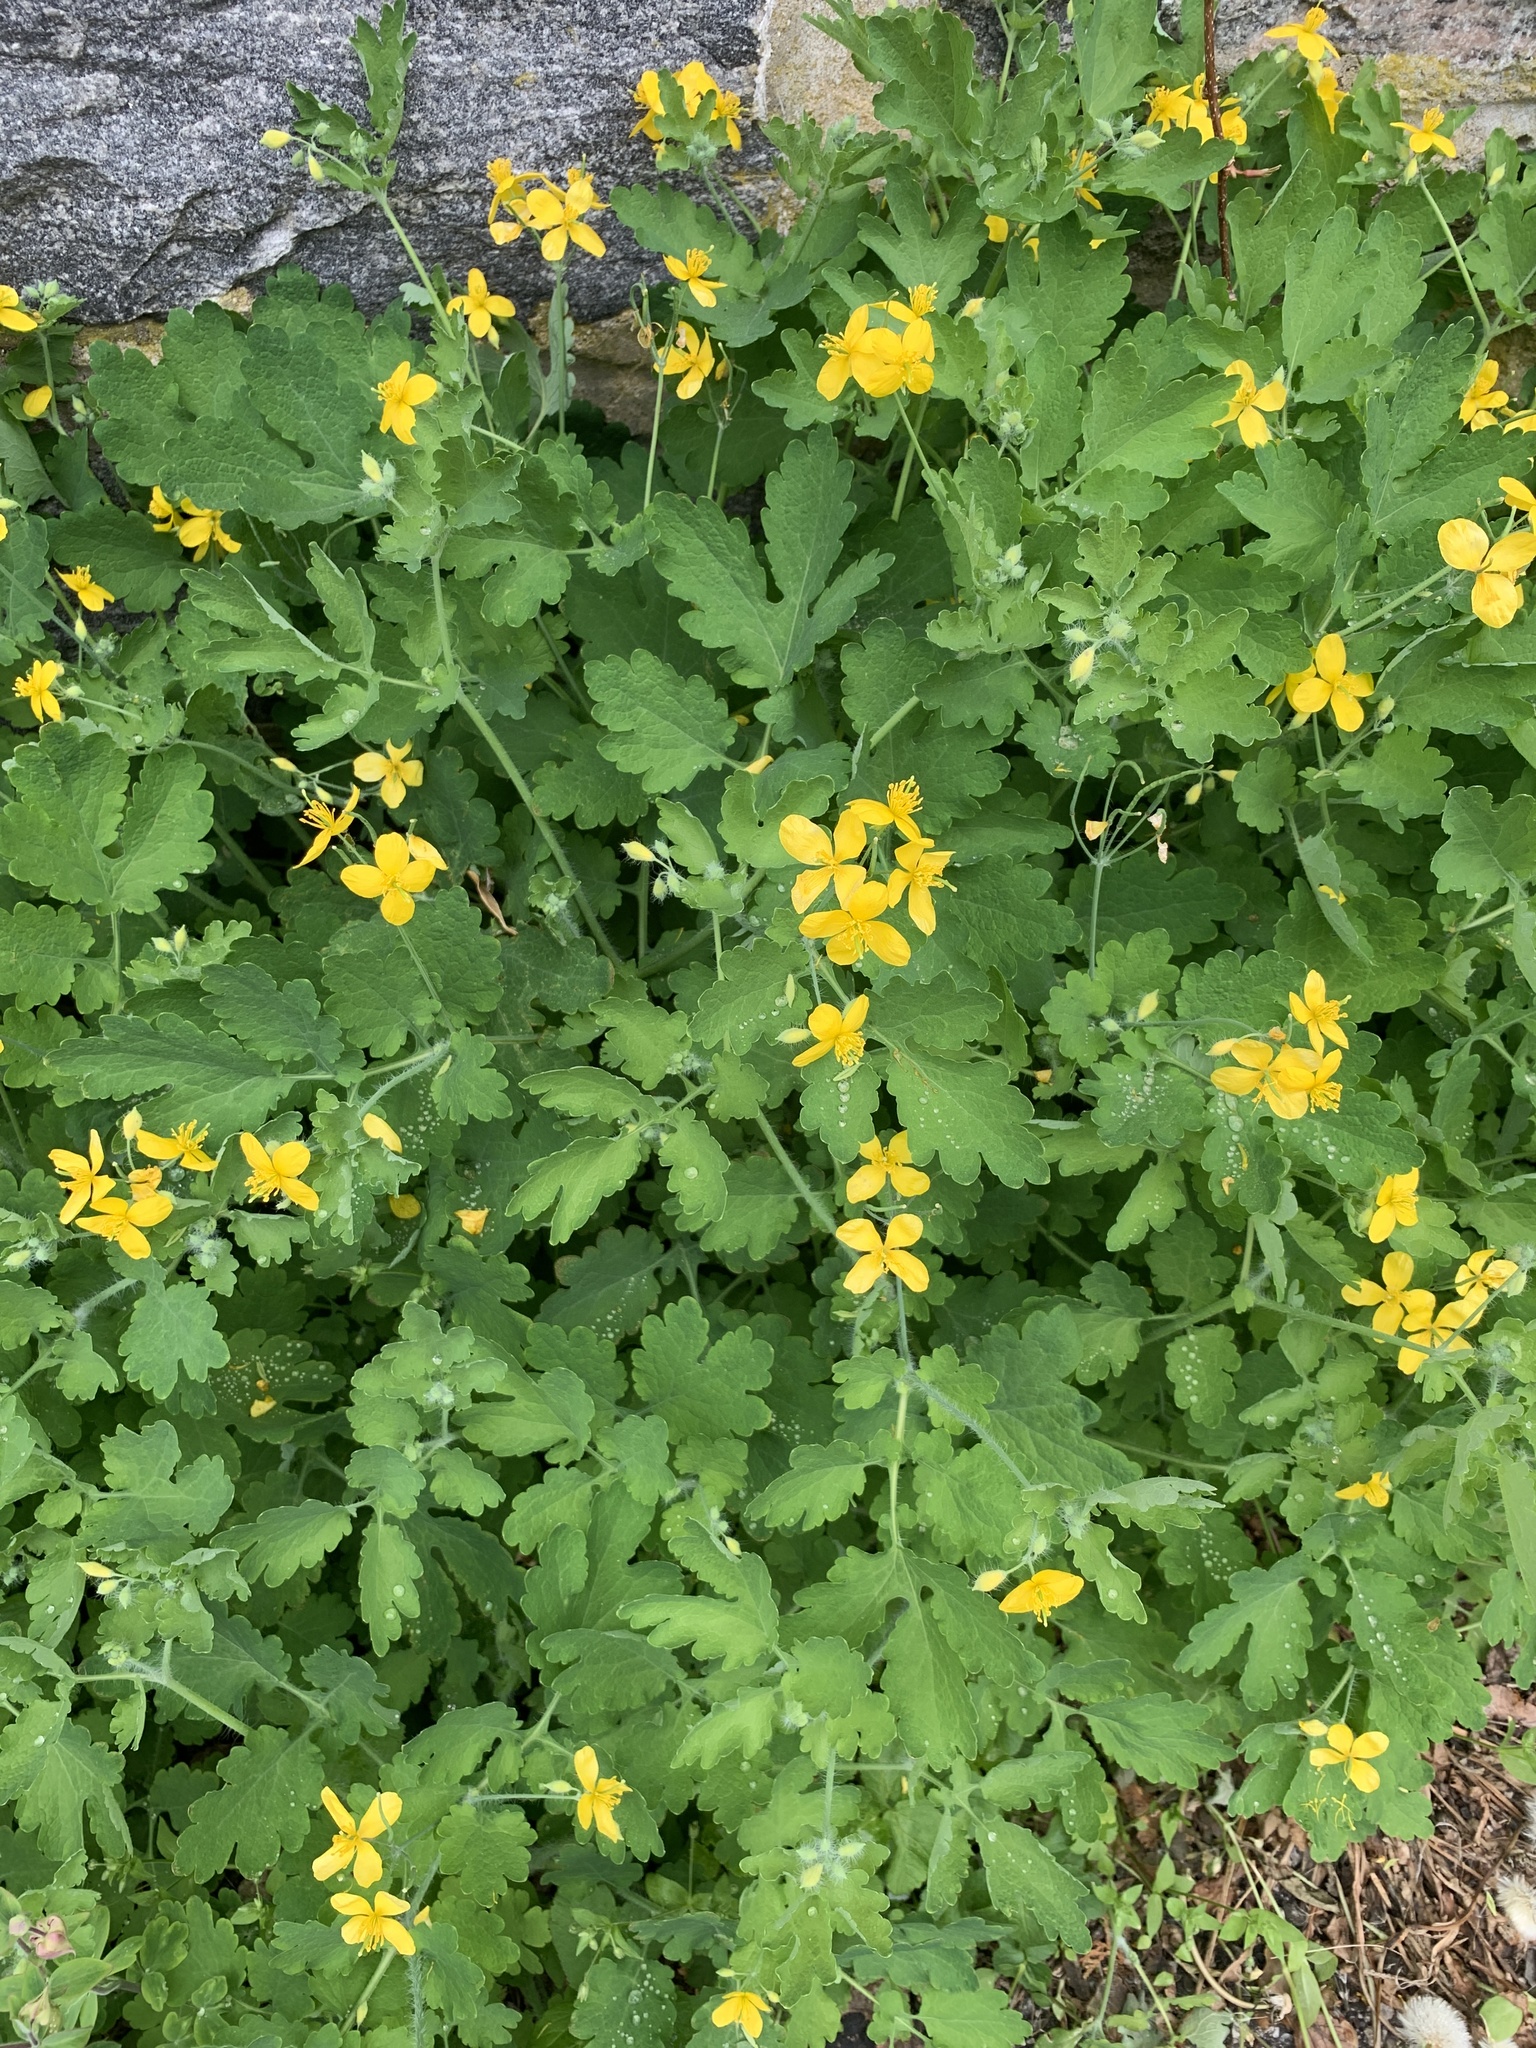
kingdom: Plantae
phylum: Tracheophyta
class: Magnoliopsida
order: Ranunculales
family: Papaveraceae
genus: Chelidonium
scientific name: Chelidonium majus
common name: Greater celandine
